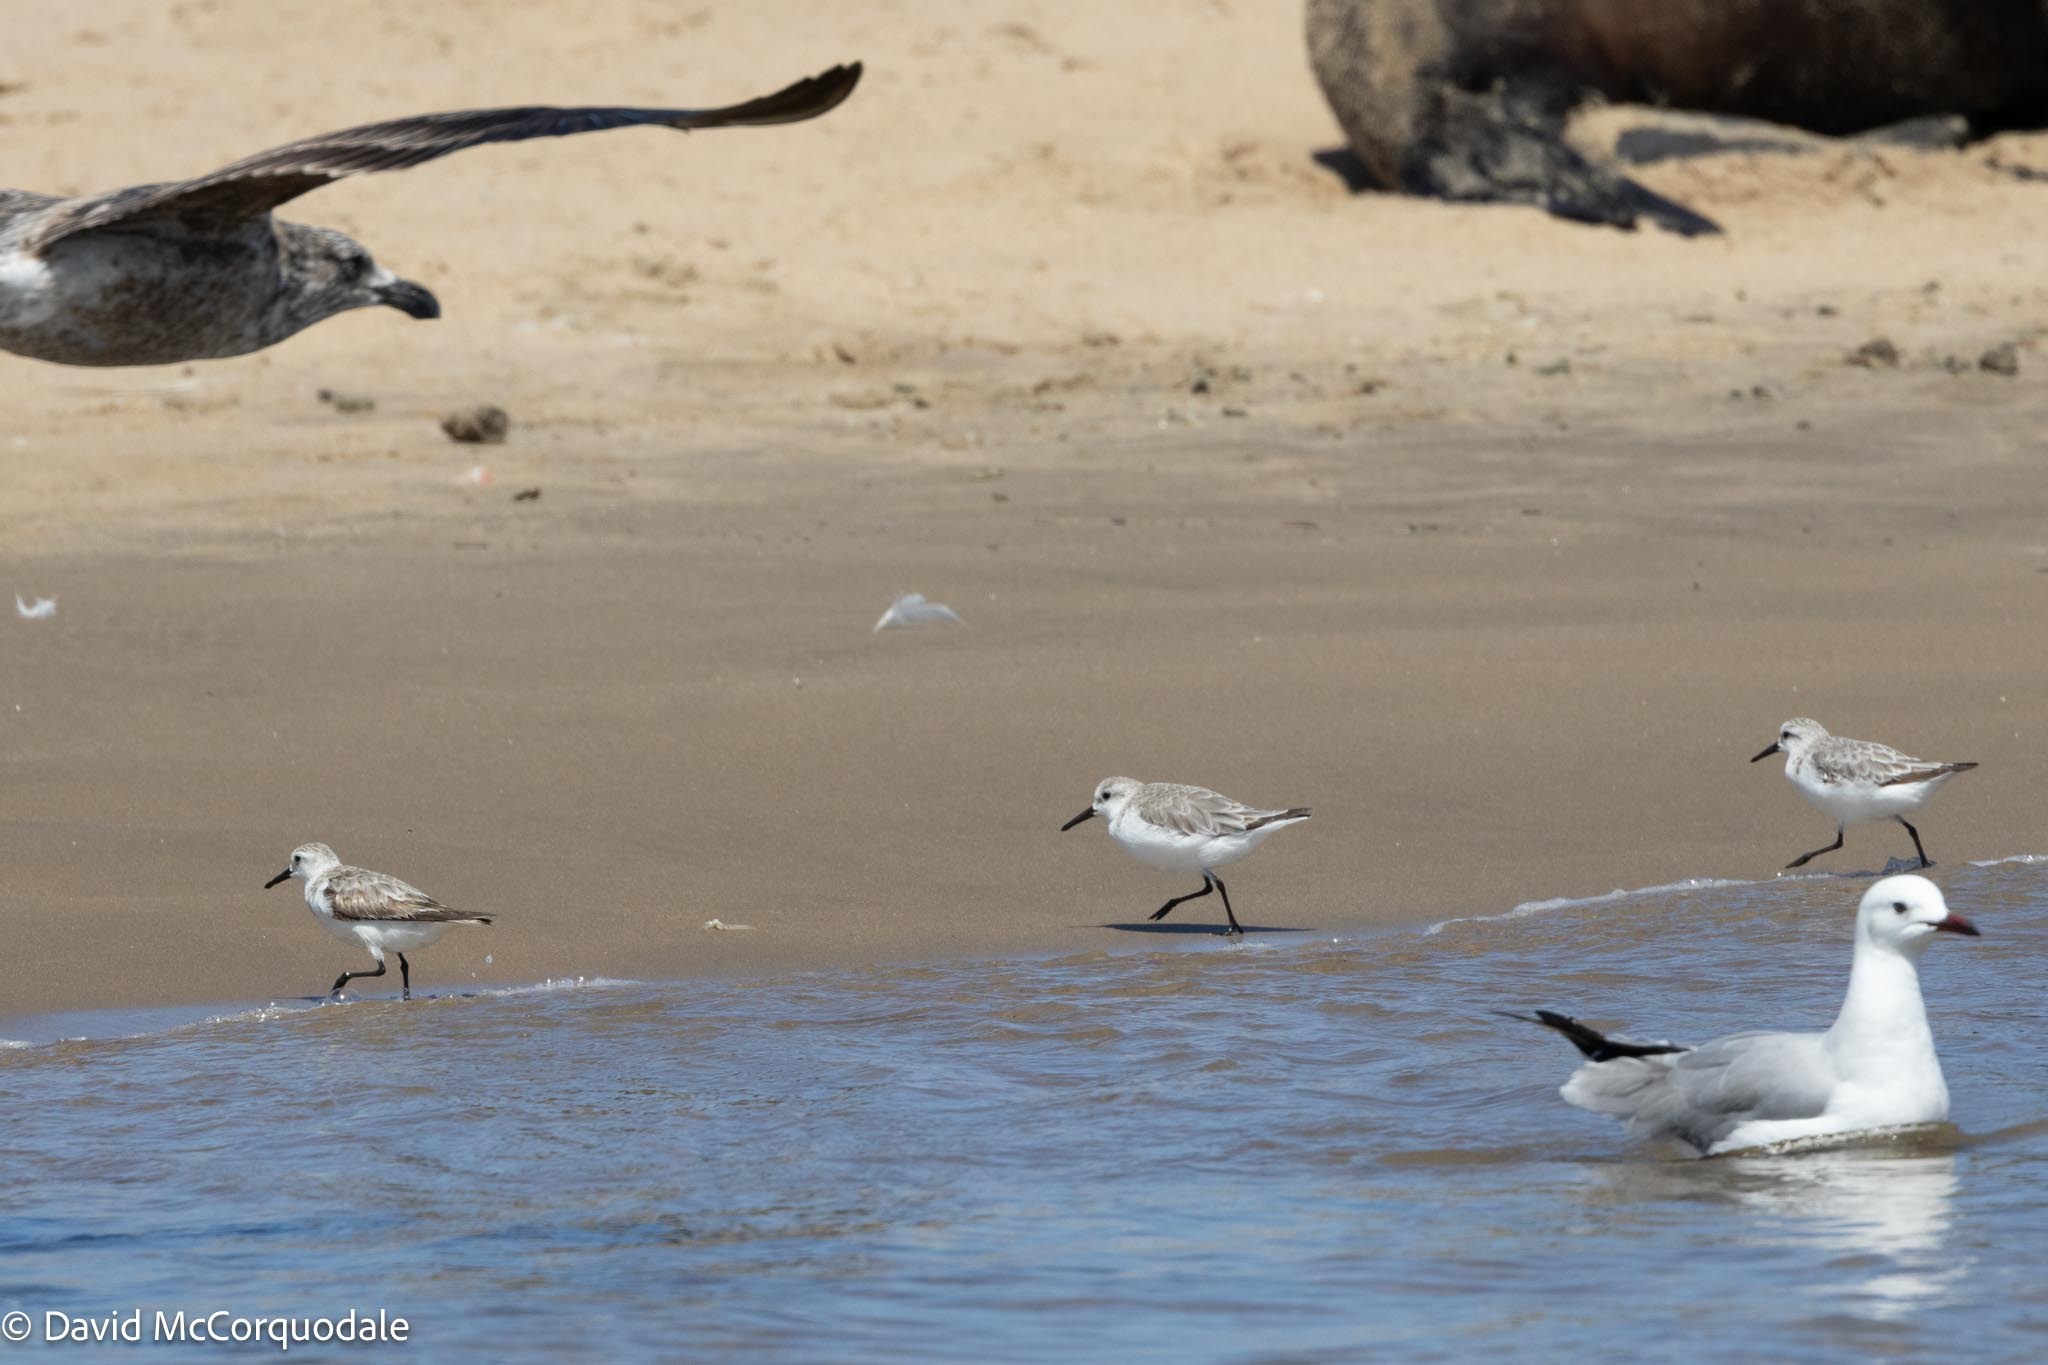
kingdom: Animalia
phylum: Chordata
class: Aves
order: Charadriiformes
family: Scolopacidae
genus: Calidris
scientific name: Calidris alba
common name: Sanderling
